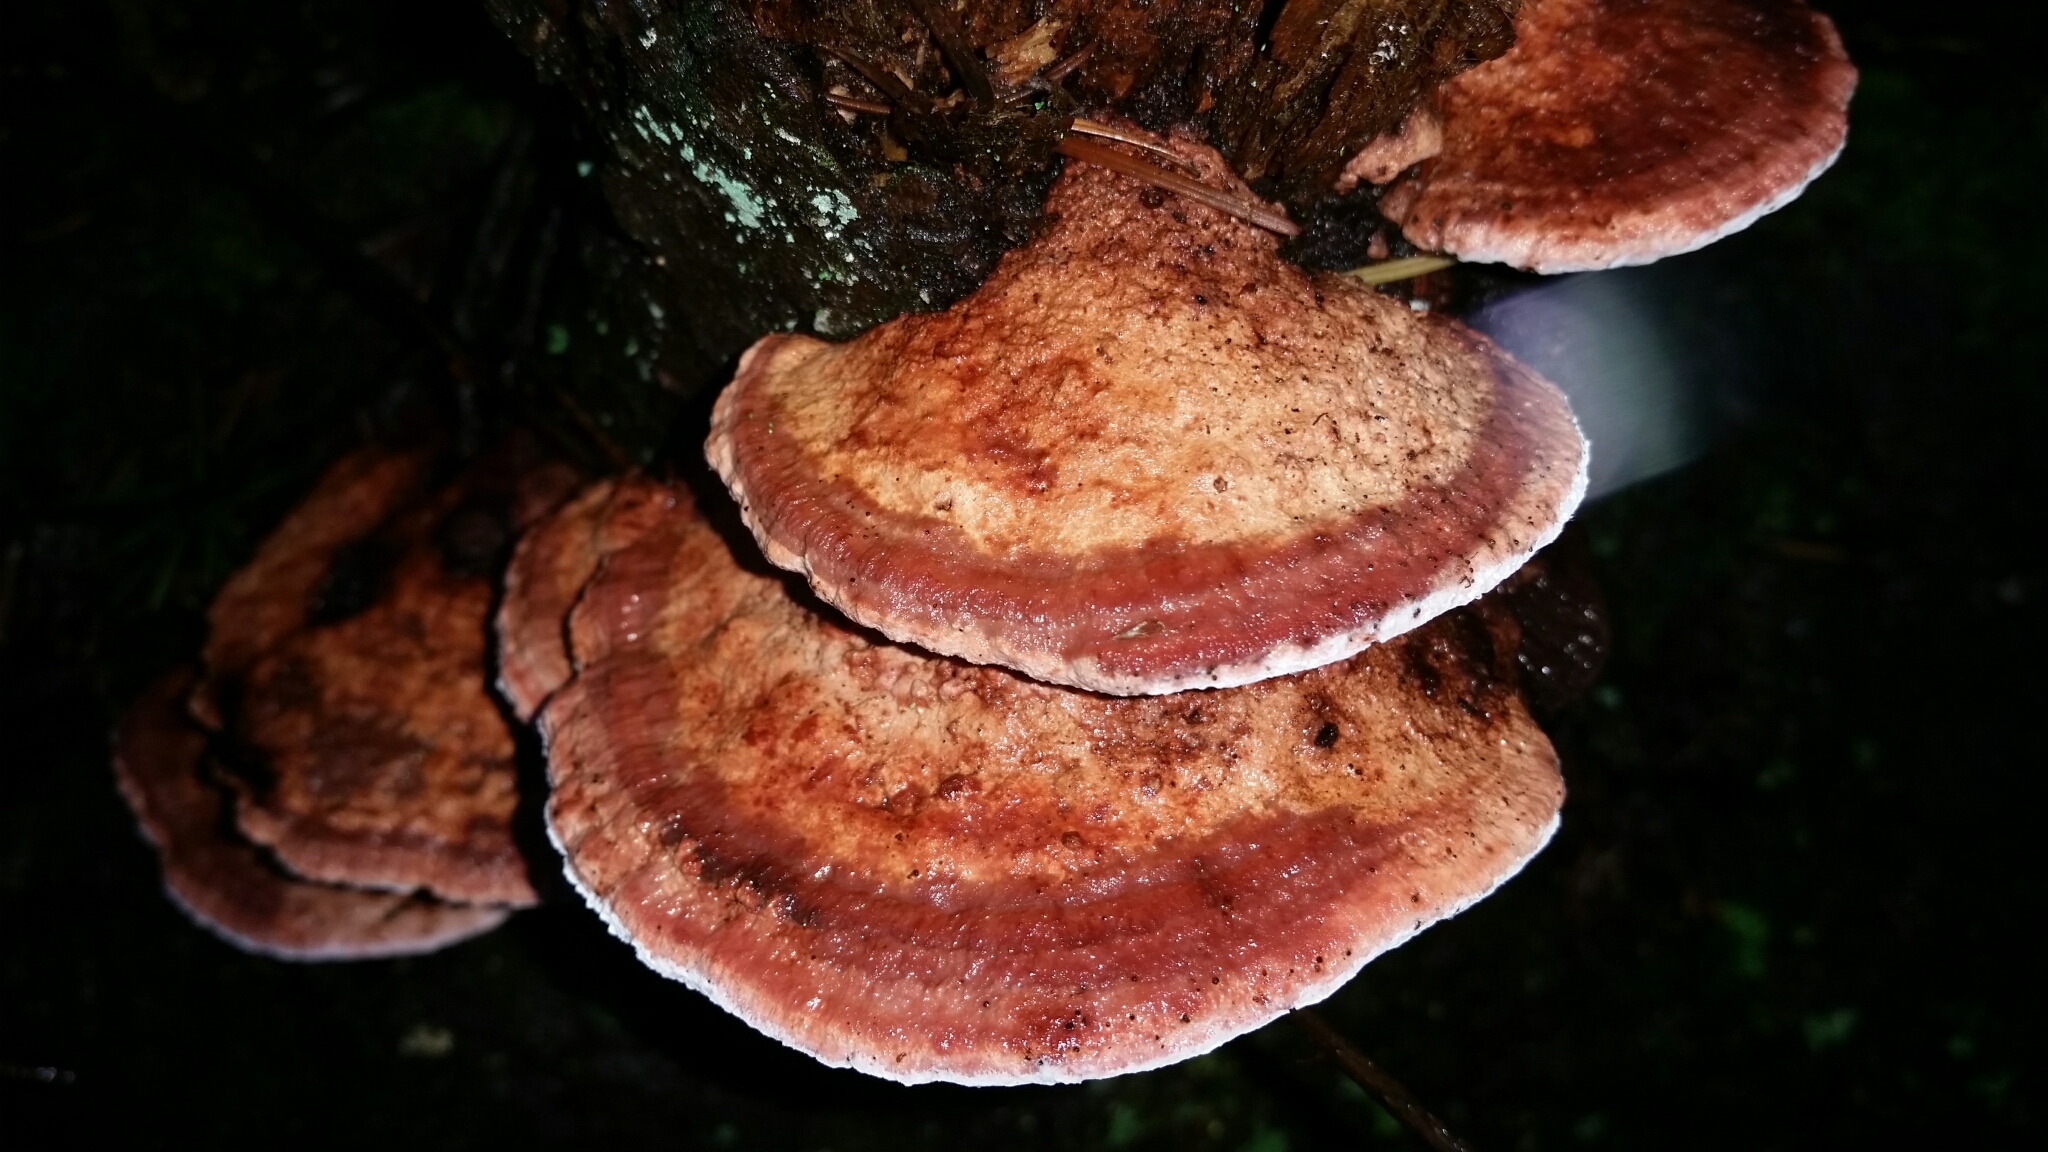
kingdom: Fungi
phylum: Basidiomycota
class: Agaricomycetes
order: Polyporales
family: Fomitopsidaceae
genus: Rhodofomes
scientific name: Rhodofomes cajanderi
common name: Rosy conk
